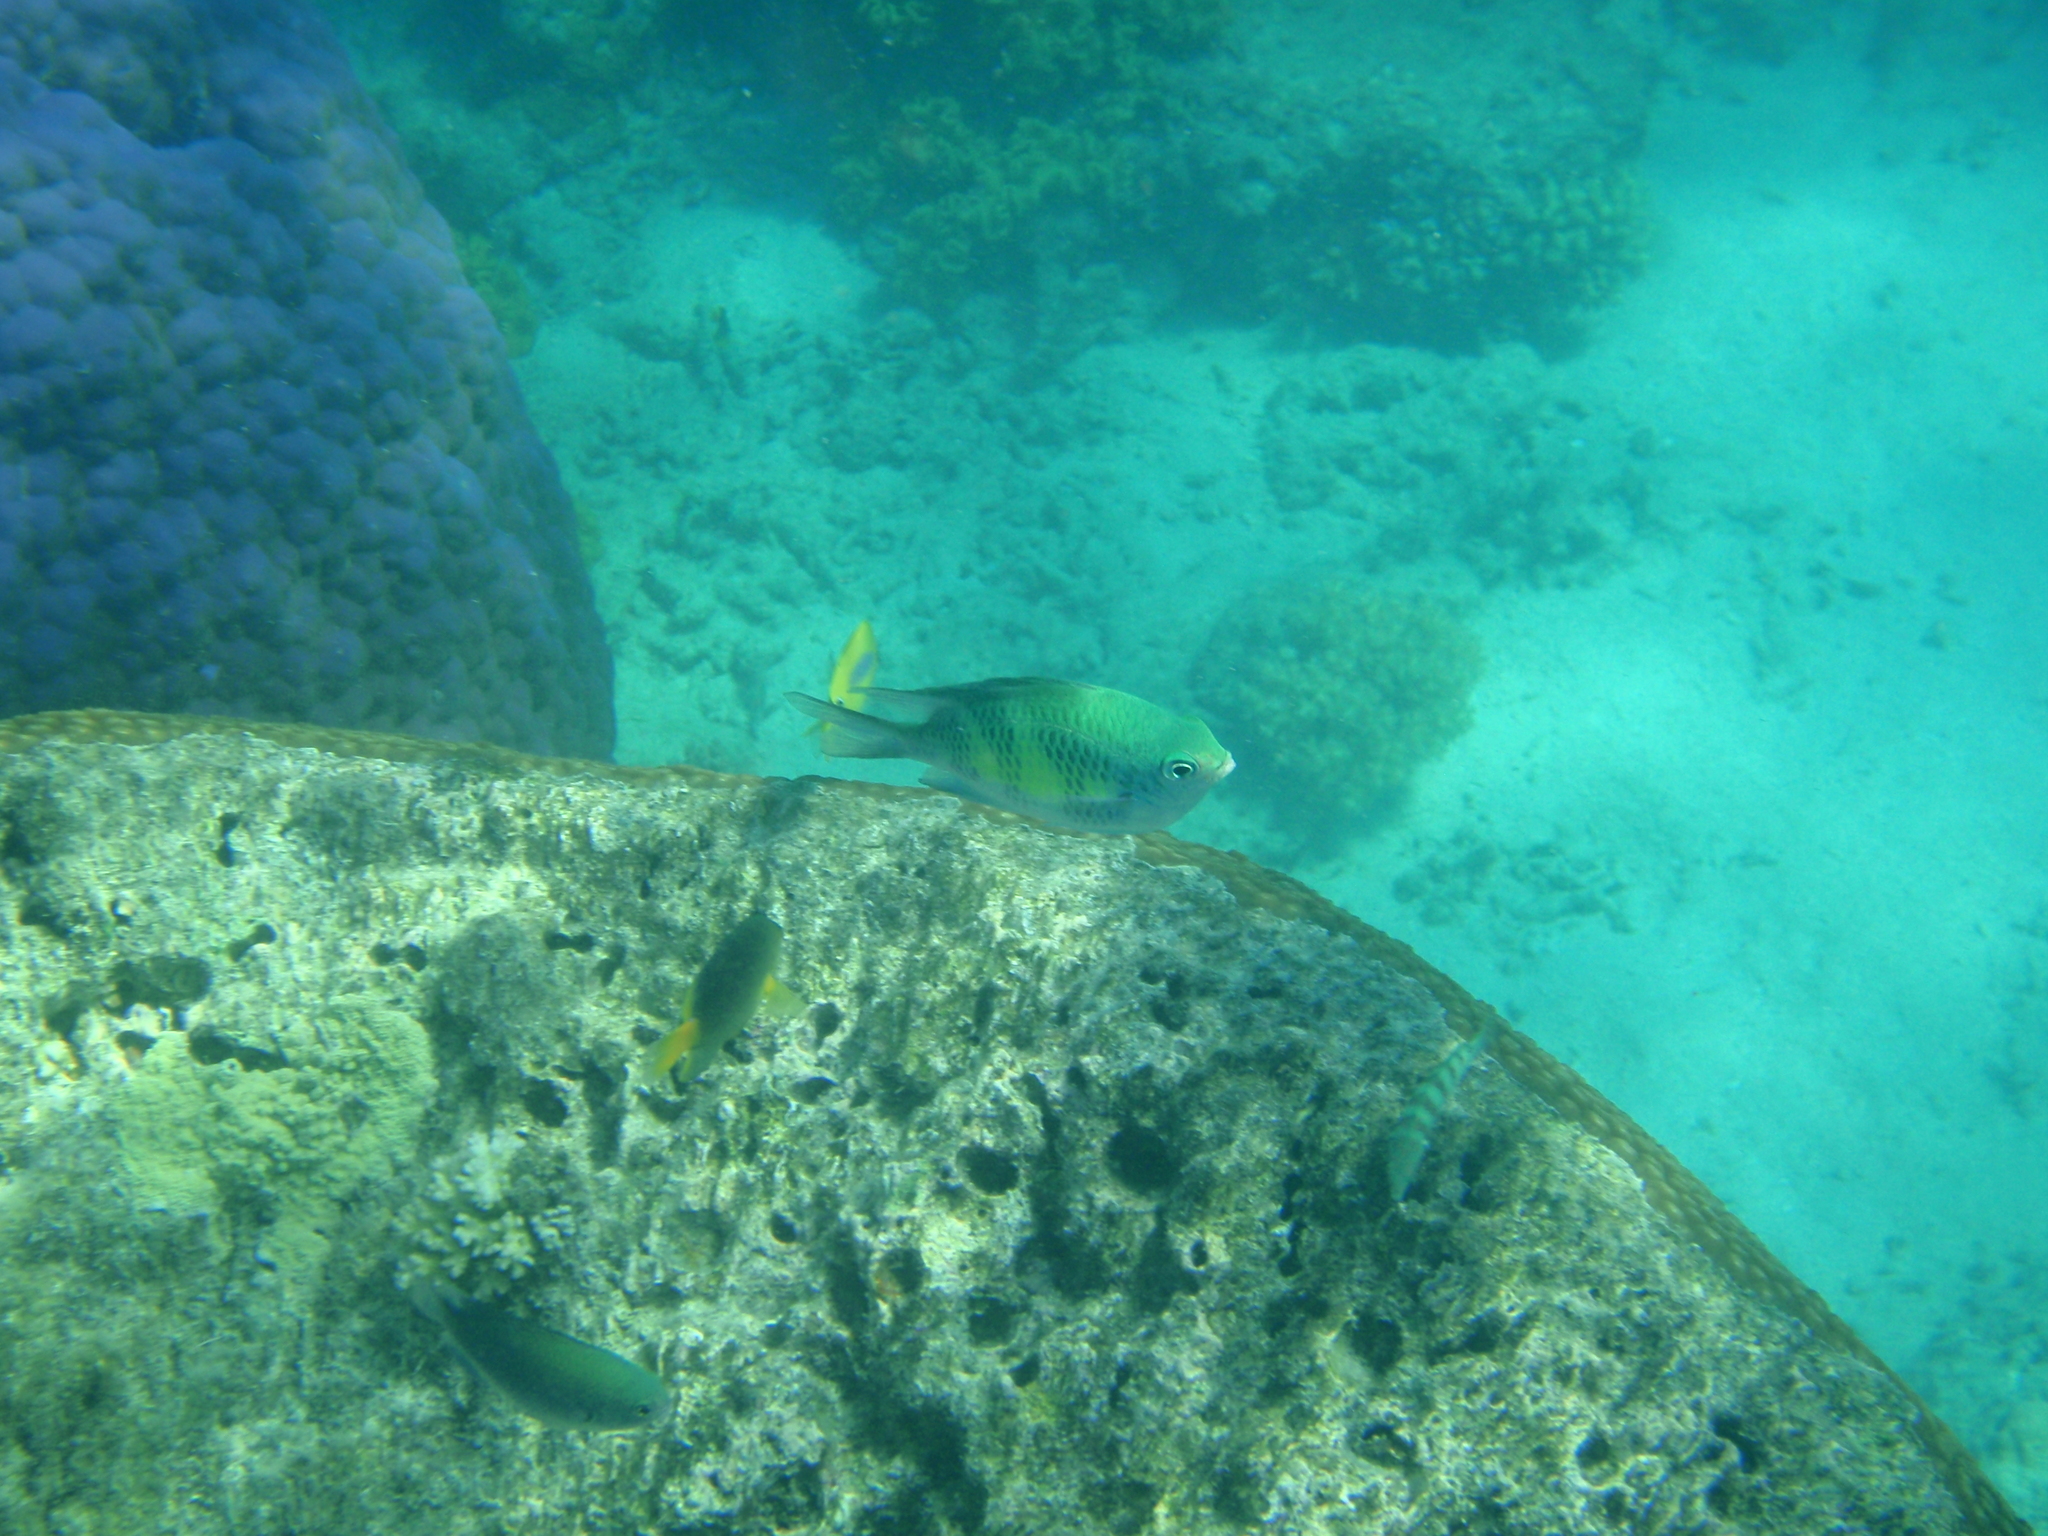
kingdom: Animalia
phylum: Chordata
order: Perciformes
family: Pomacentridae
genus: Amblyglyphidodon
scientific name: Amblyglyphidodon curacao
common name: Staghorn damsel
